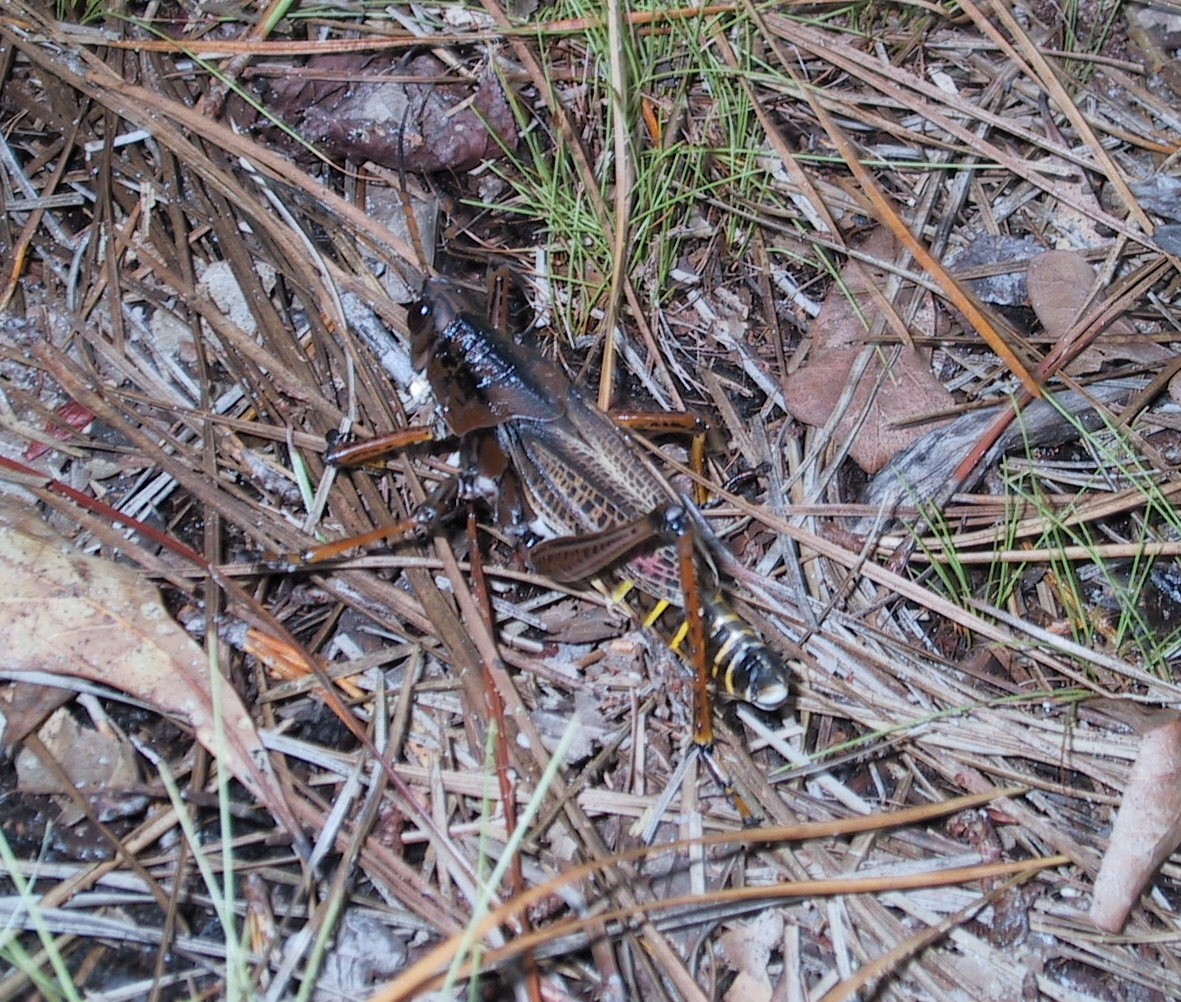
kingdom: Animalia
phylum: Arthropoda
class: Insecta
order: Orthoptera
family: Romaleidae
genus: Romalea
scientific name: Romalea microptera
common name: Eastern lubber grasshopper
